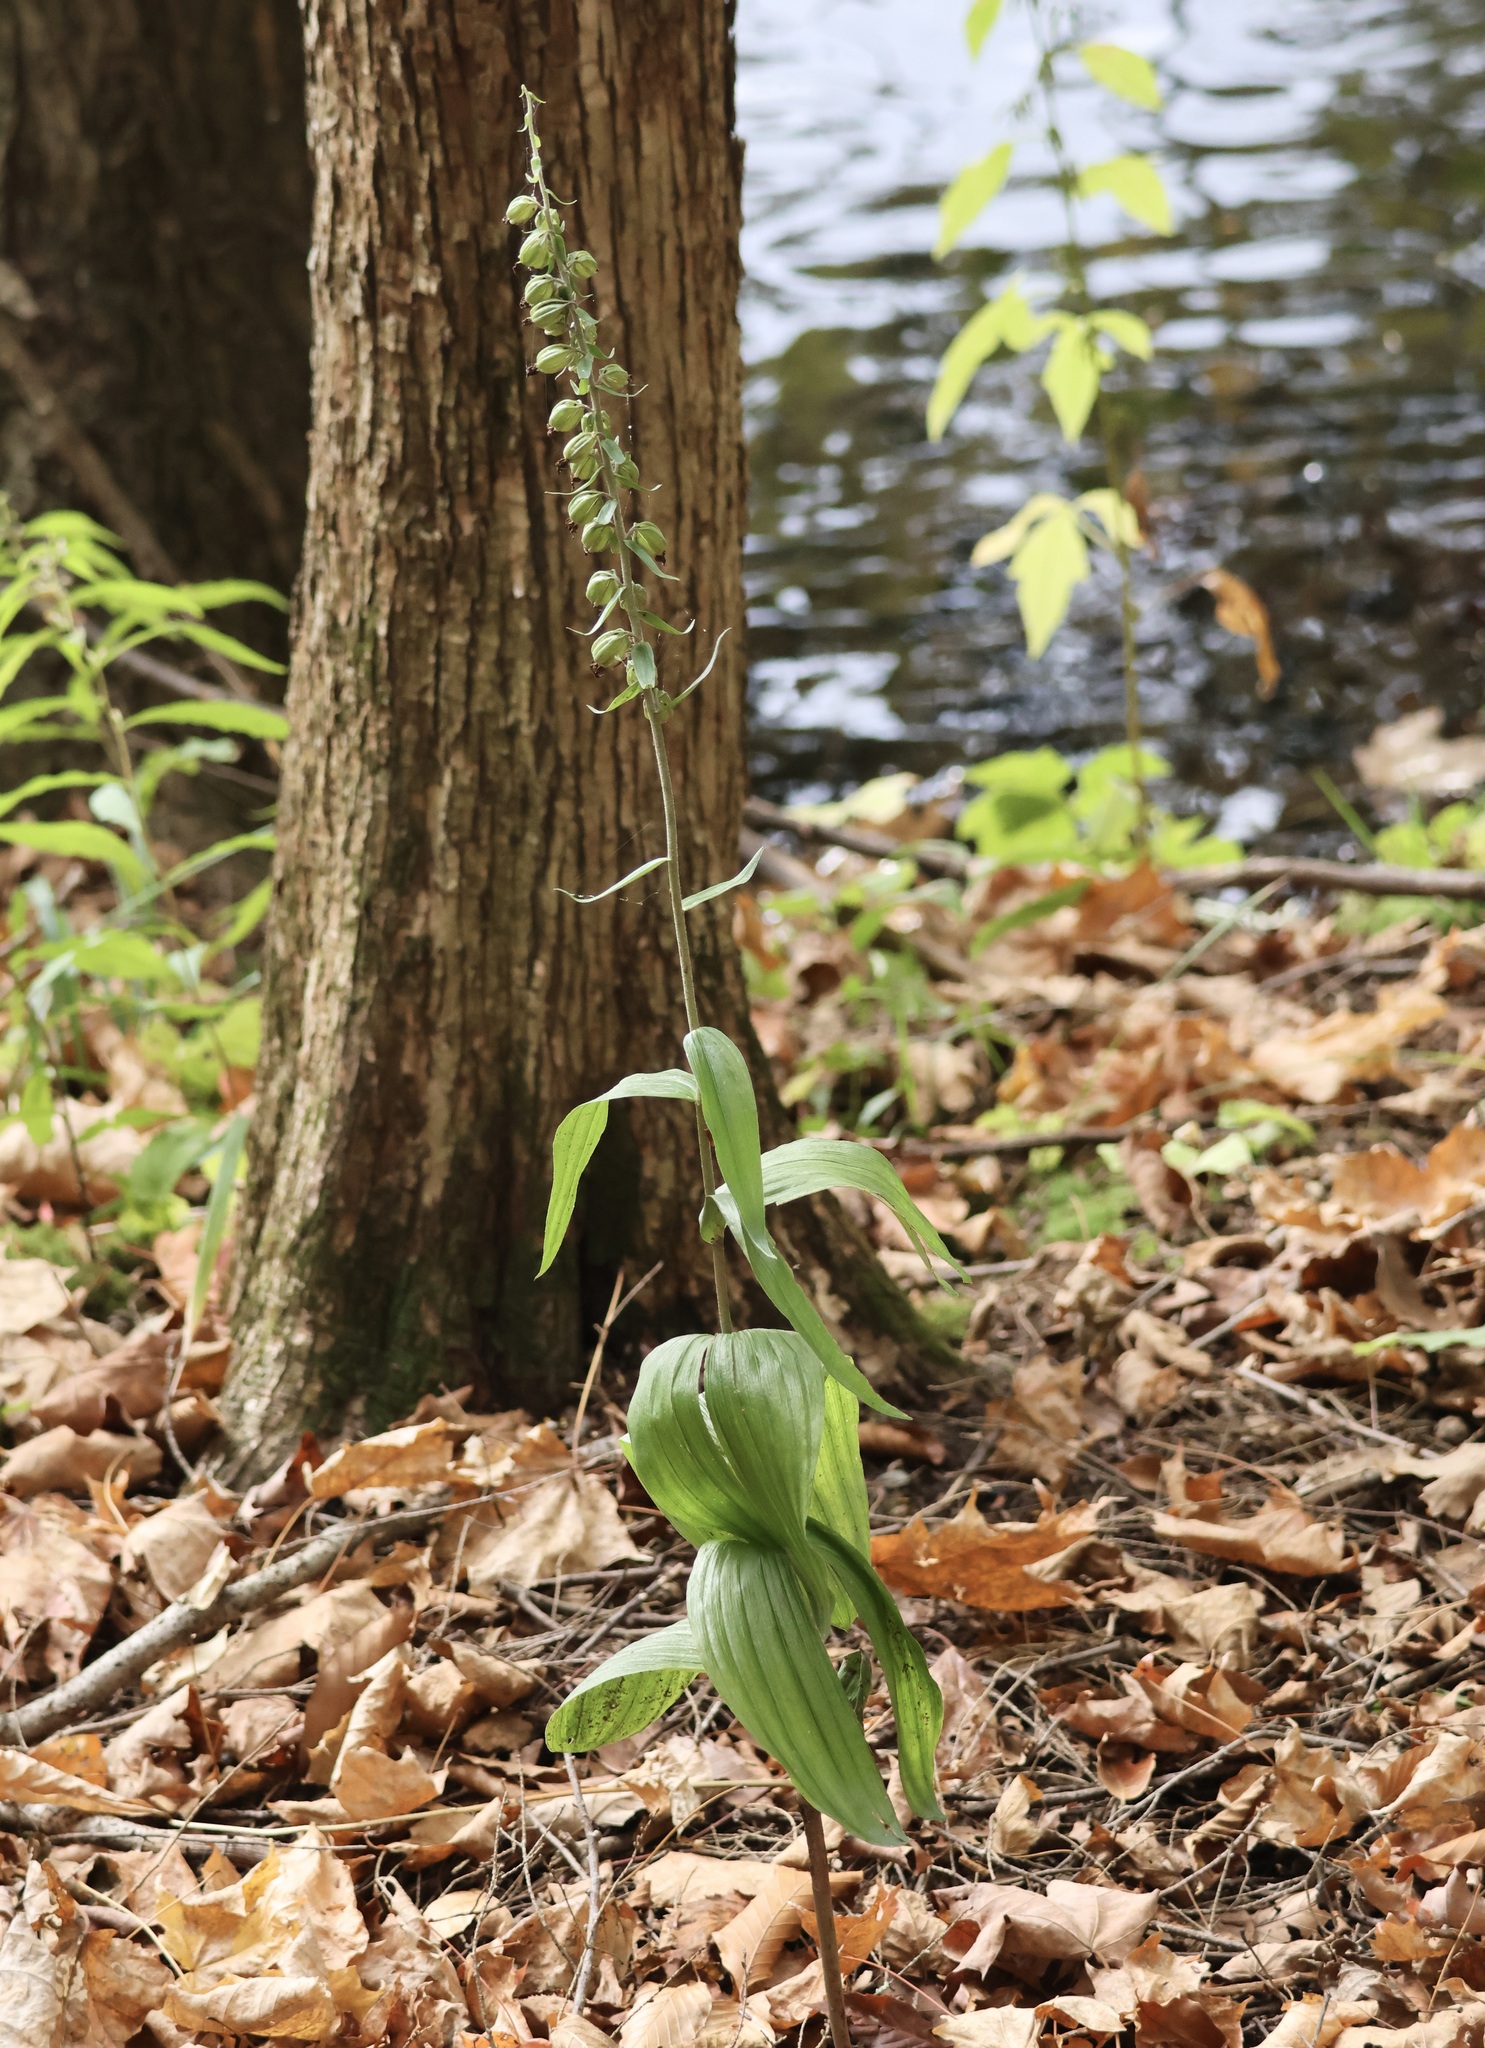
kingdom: Plantae
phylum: Tracheophyta
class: Liliopsida
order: Asparagales
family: Orchidaceae
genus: Epipactis
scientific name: Epipactis helleborine
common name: Broad-leaved helleborine
